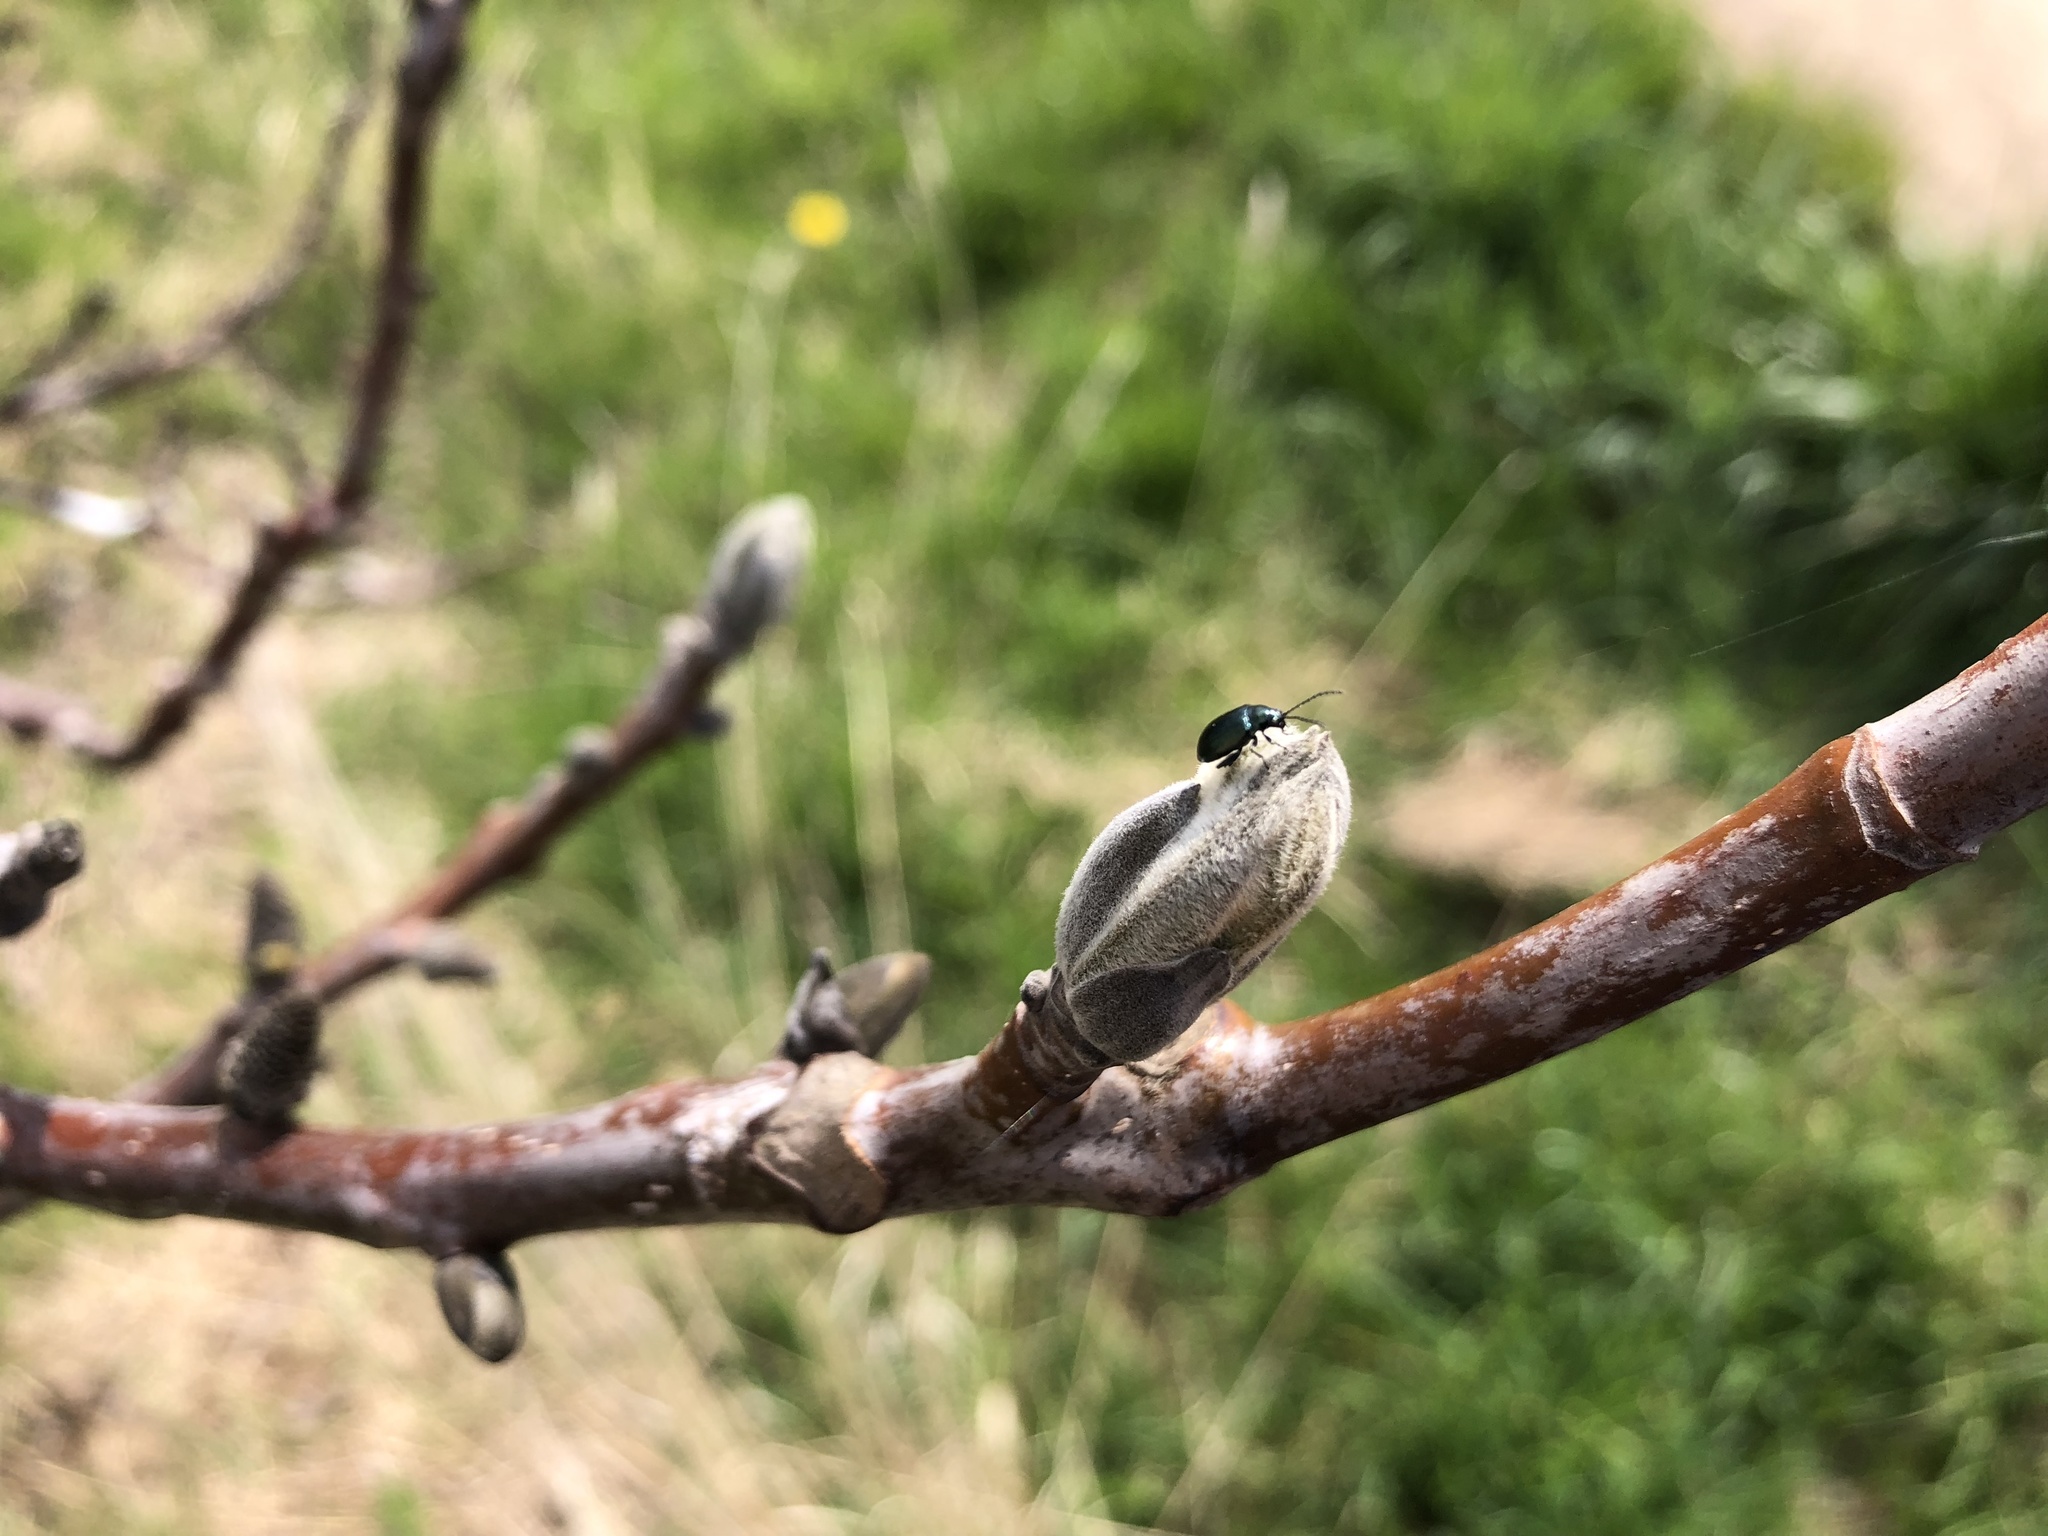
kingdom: Plantae
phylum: Tracheophyta
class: Magnoliopsida
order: Fagales
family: Juglandaceae
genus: Juglans
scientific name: Juglans regia
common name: Walnut
